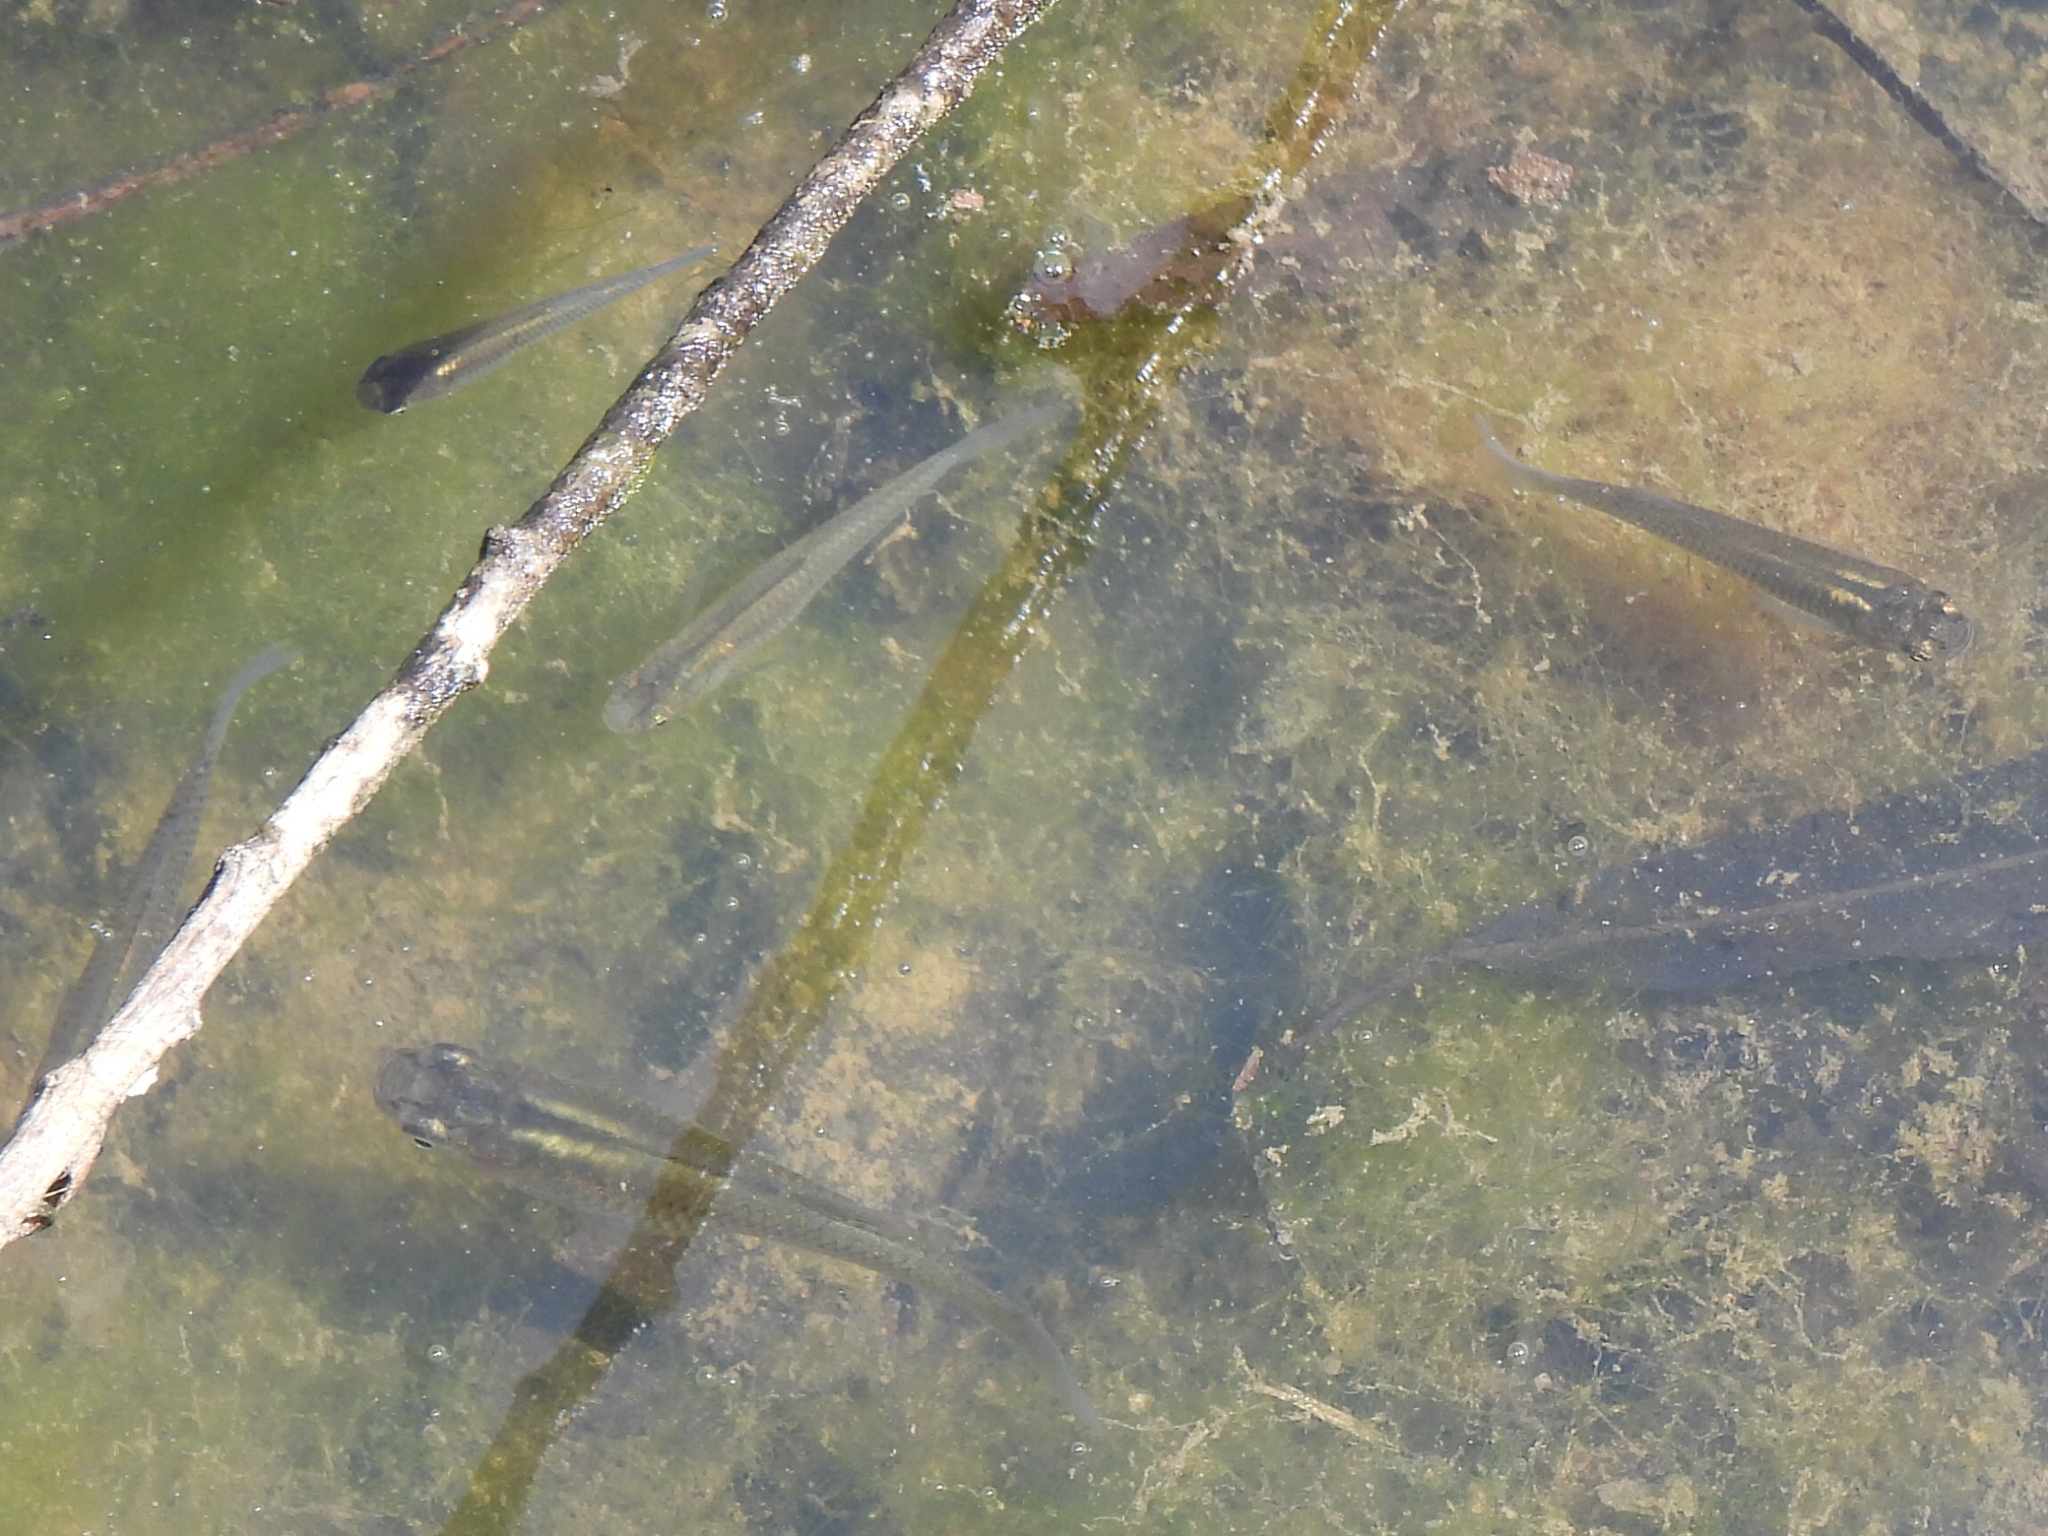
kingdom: Animalia
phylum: Chordata
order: Cyprinodontiformes
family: Poeciliidae
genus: Gambusia
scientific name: Gambusia affinis
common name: Mosquitofish
